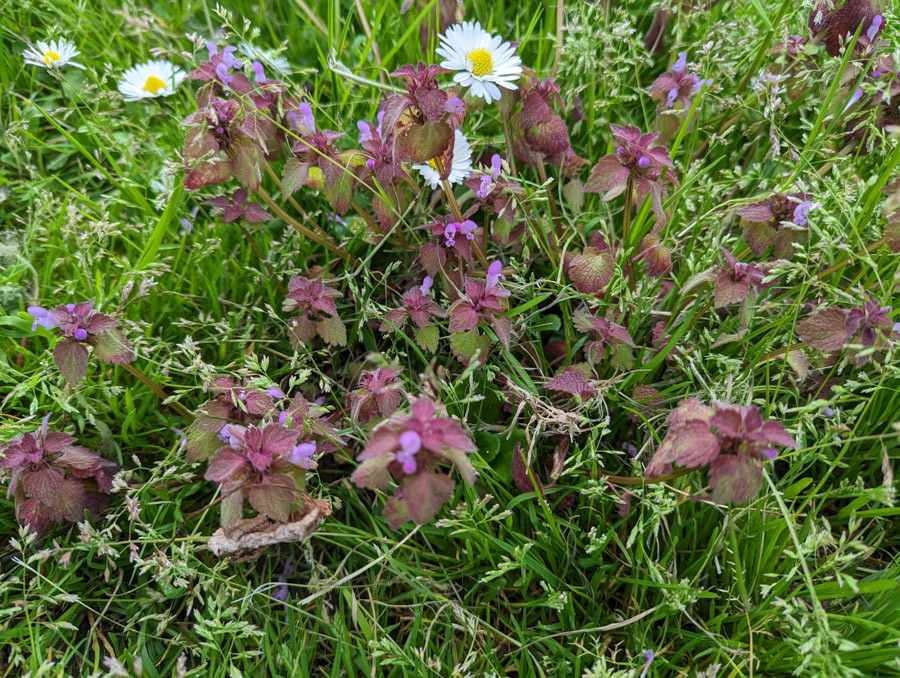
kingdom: Plantae
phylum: Tracheophyta
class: Magnoliopsida
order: Lamiales
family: Lamiaceae
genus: Lamium
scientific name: Lamium purpureum
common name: Red dead-nettle
